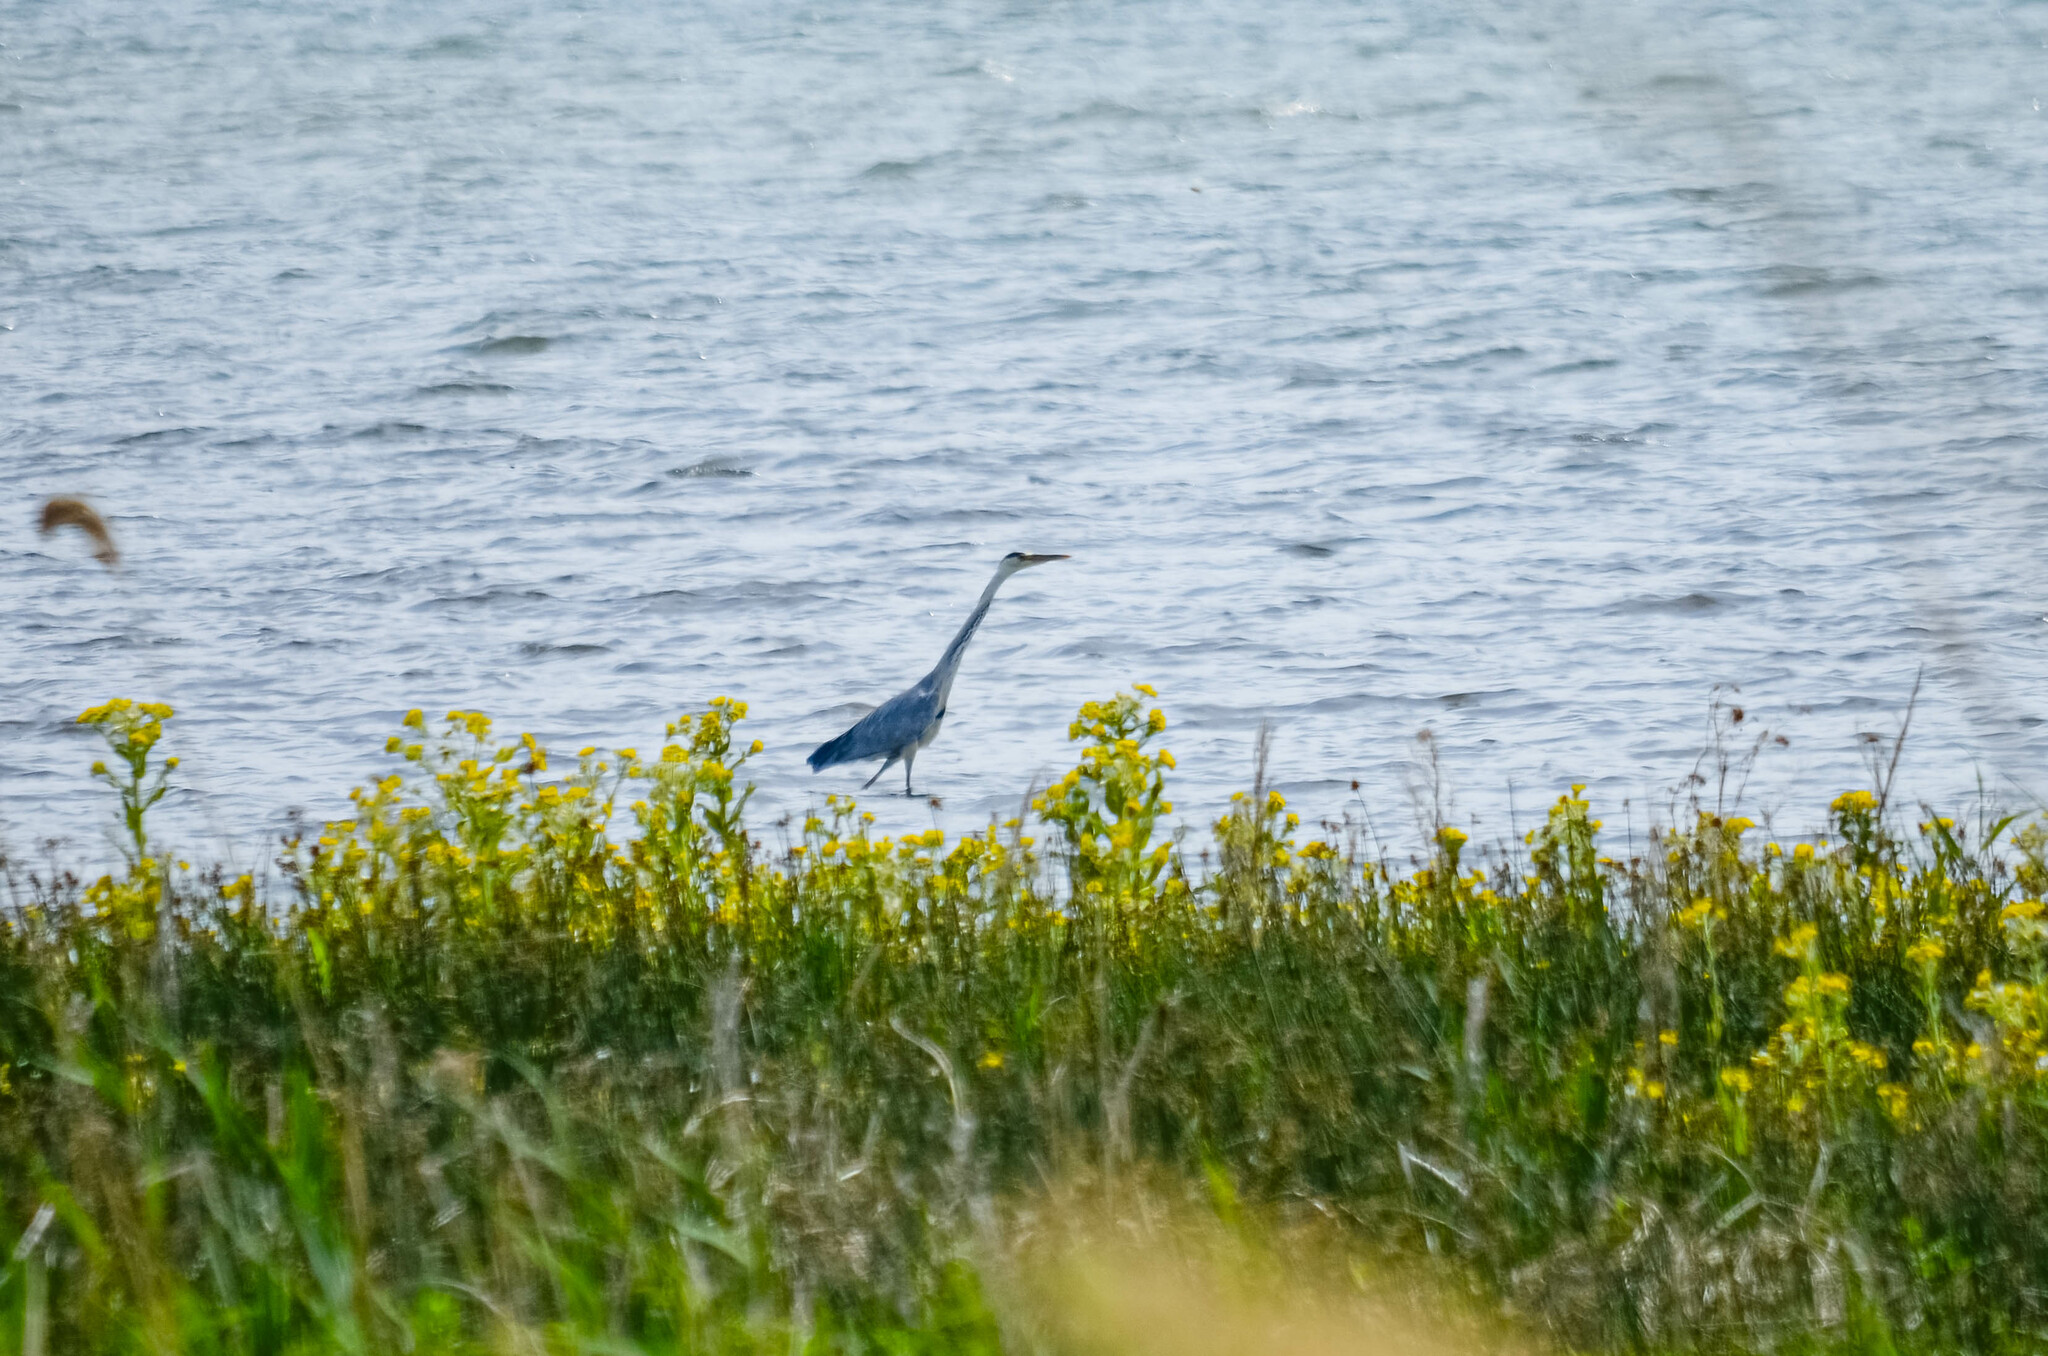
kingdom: Animalia
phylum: Chordata
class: Aves
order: Pelecaniformes
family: Ardeidae
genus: Ardea
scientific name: Ardea cinerea
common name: Grey heron
